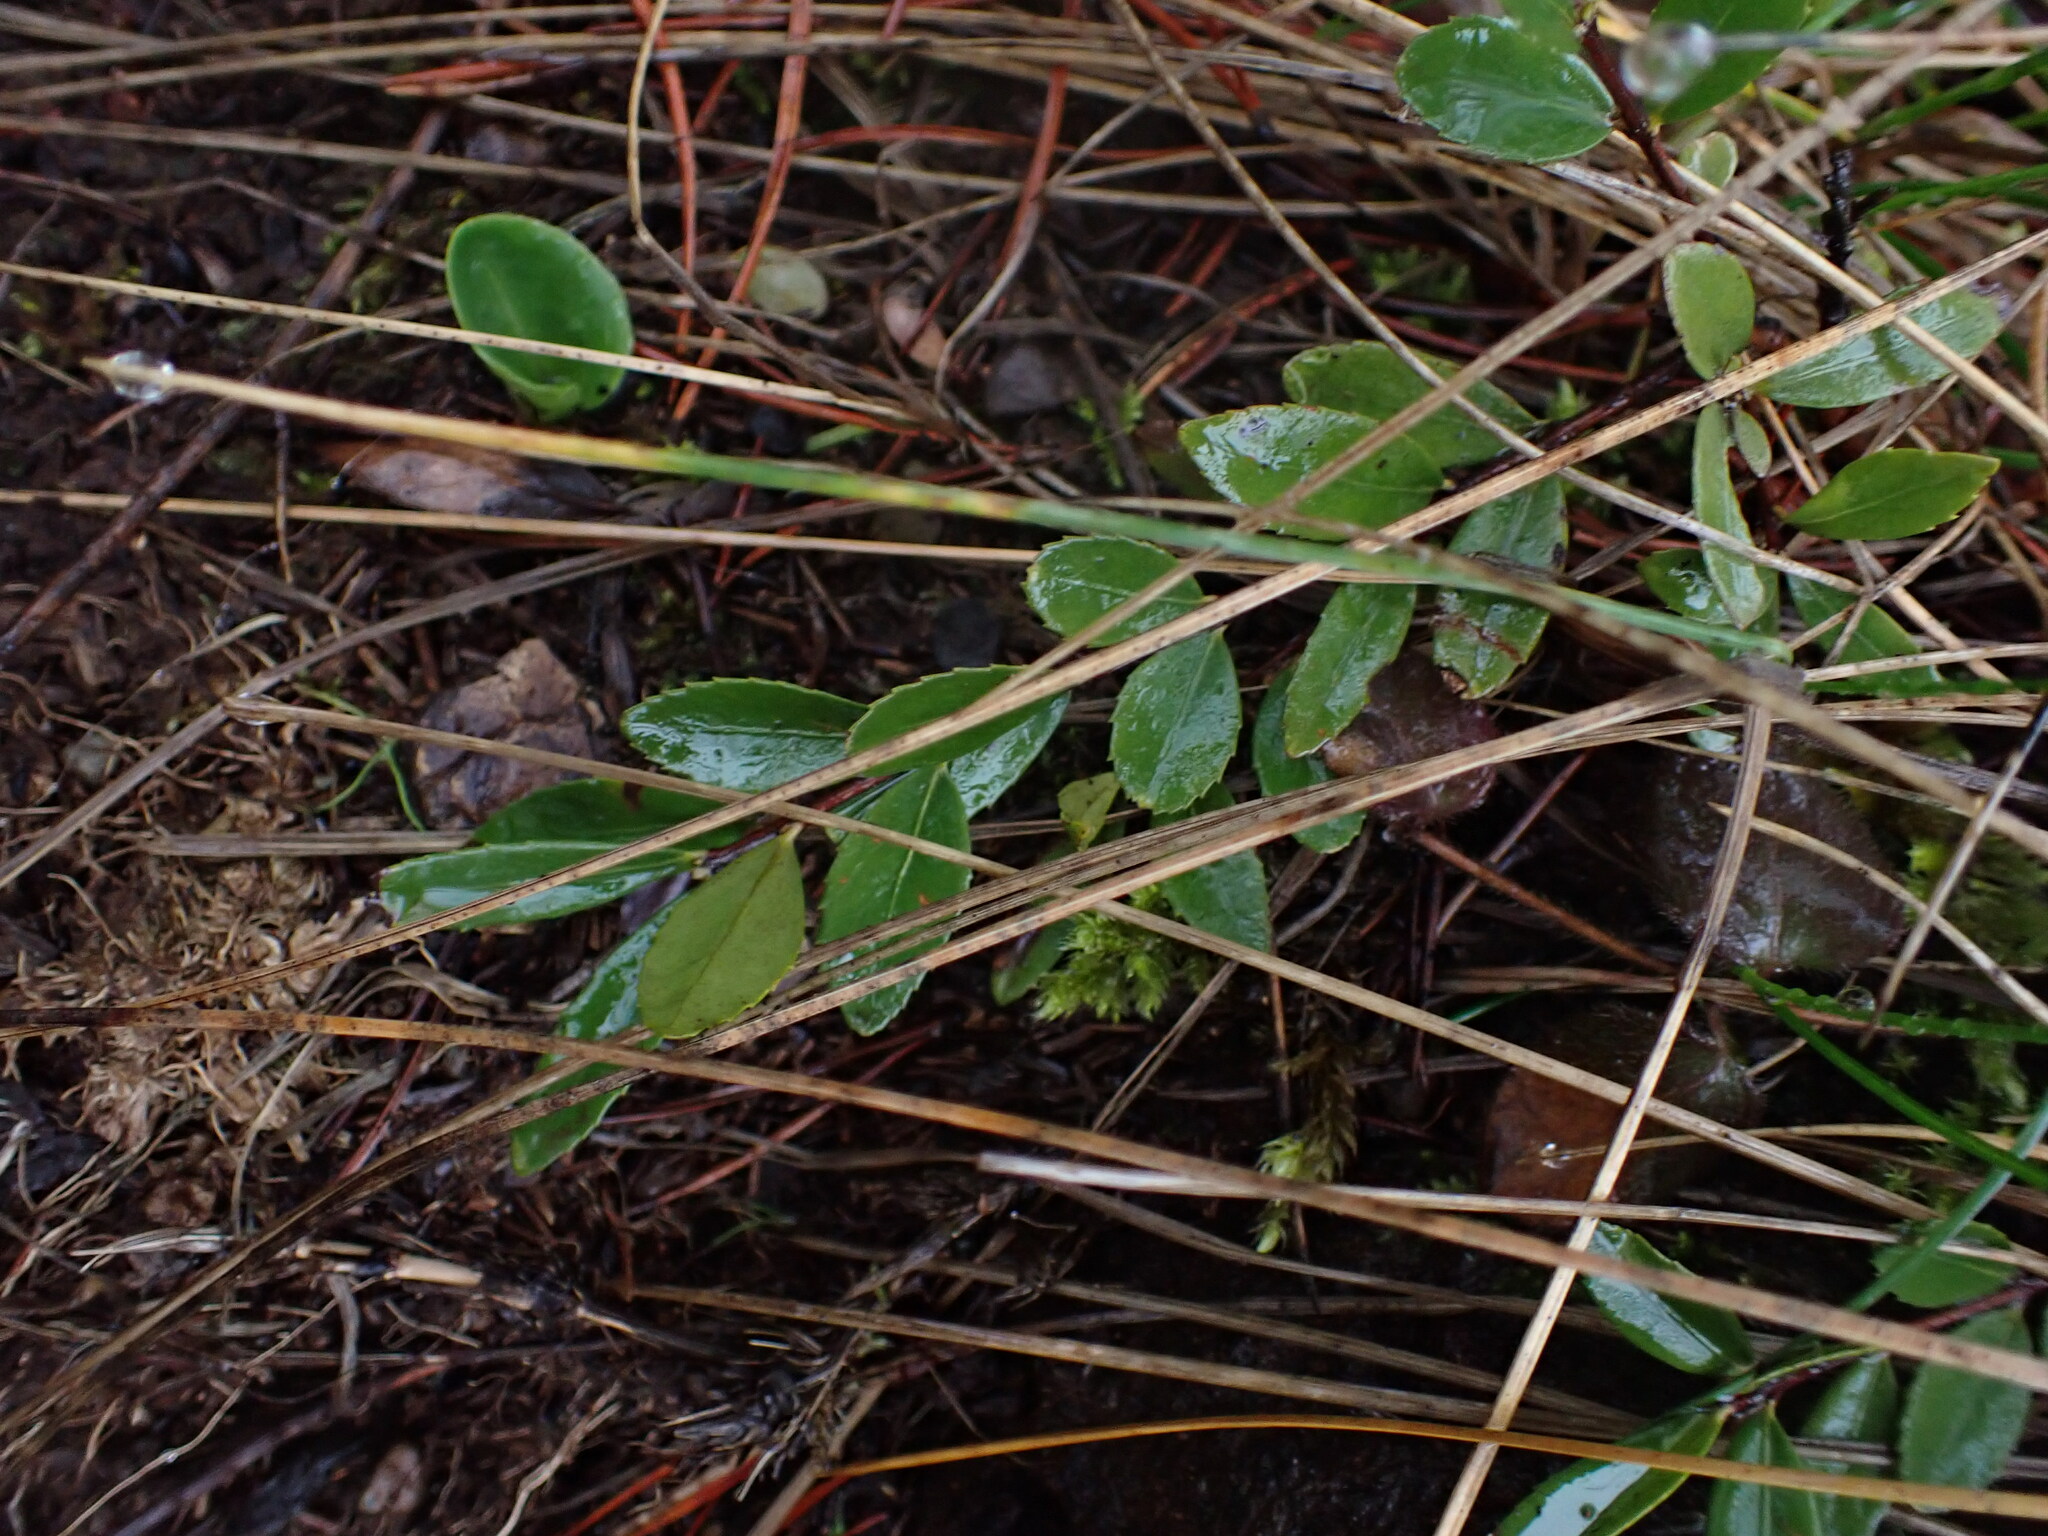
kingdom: Plantae
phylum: Tracheophyta
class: Magnoliopsida
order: Celastrales
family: Celastraceae
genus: Paxistima
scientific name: Paxistima myrsinites
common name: Mountain-lover
